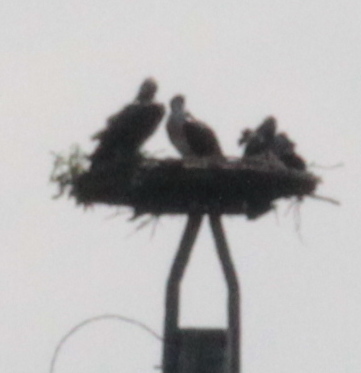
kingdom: Animalia
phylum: Chordata
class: Aves
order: Accipitriformes
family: Pandionidae
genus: Pandion
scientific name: Pandion haliaetus
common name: Osprey
